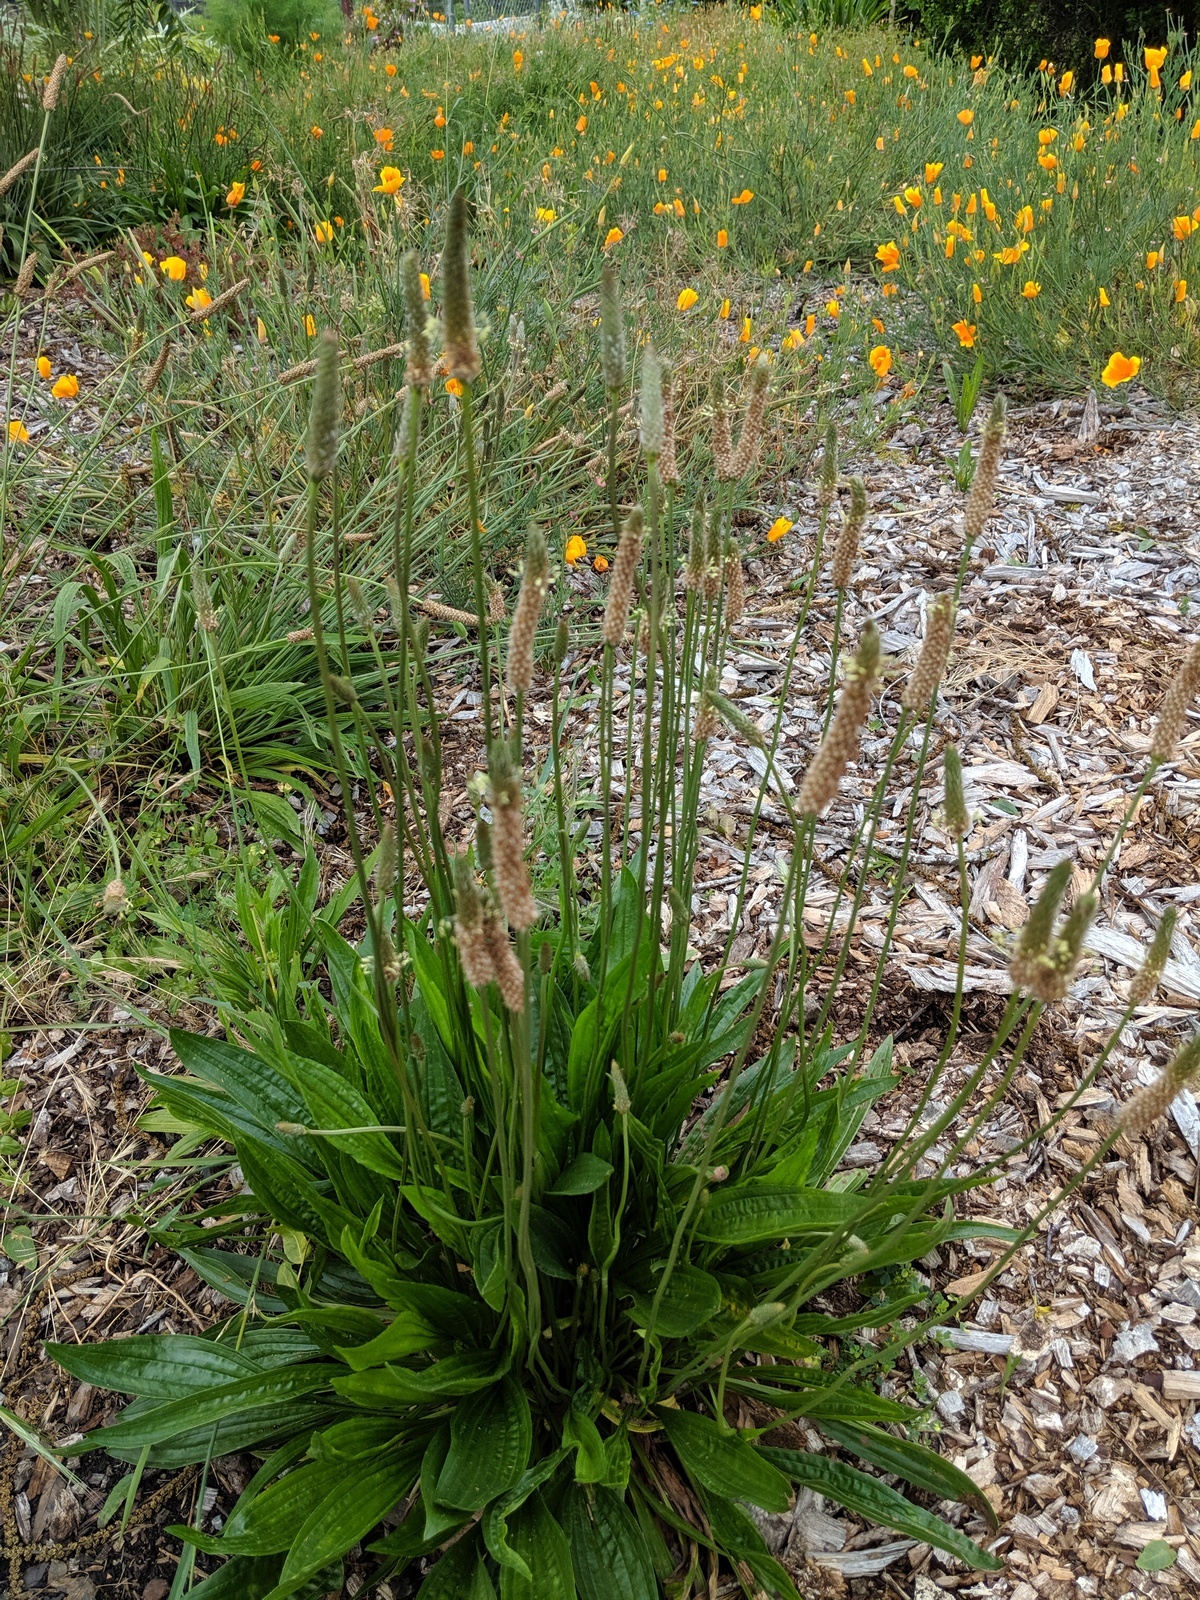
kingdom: Plantae
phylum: Tracheophyta
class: Magnoliopsida
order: Lamiales
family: Plantaginaceae
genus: Plantago
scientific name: Plantago lanceolata
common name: Ribwort plantain
